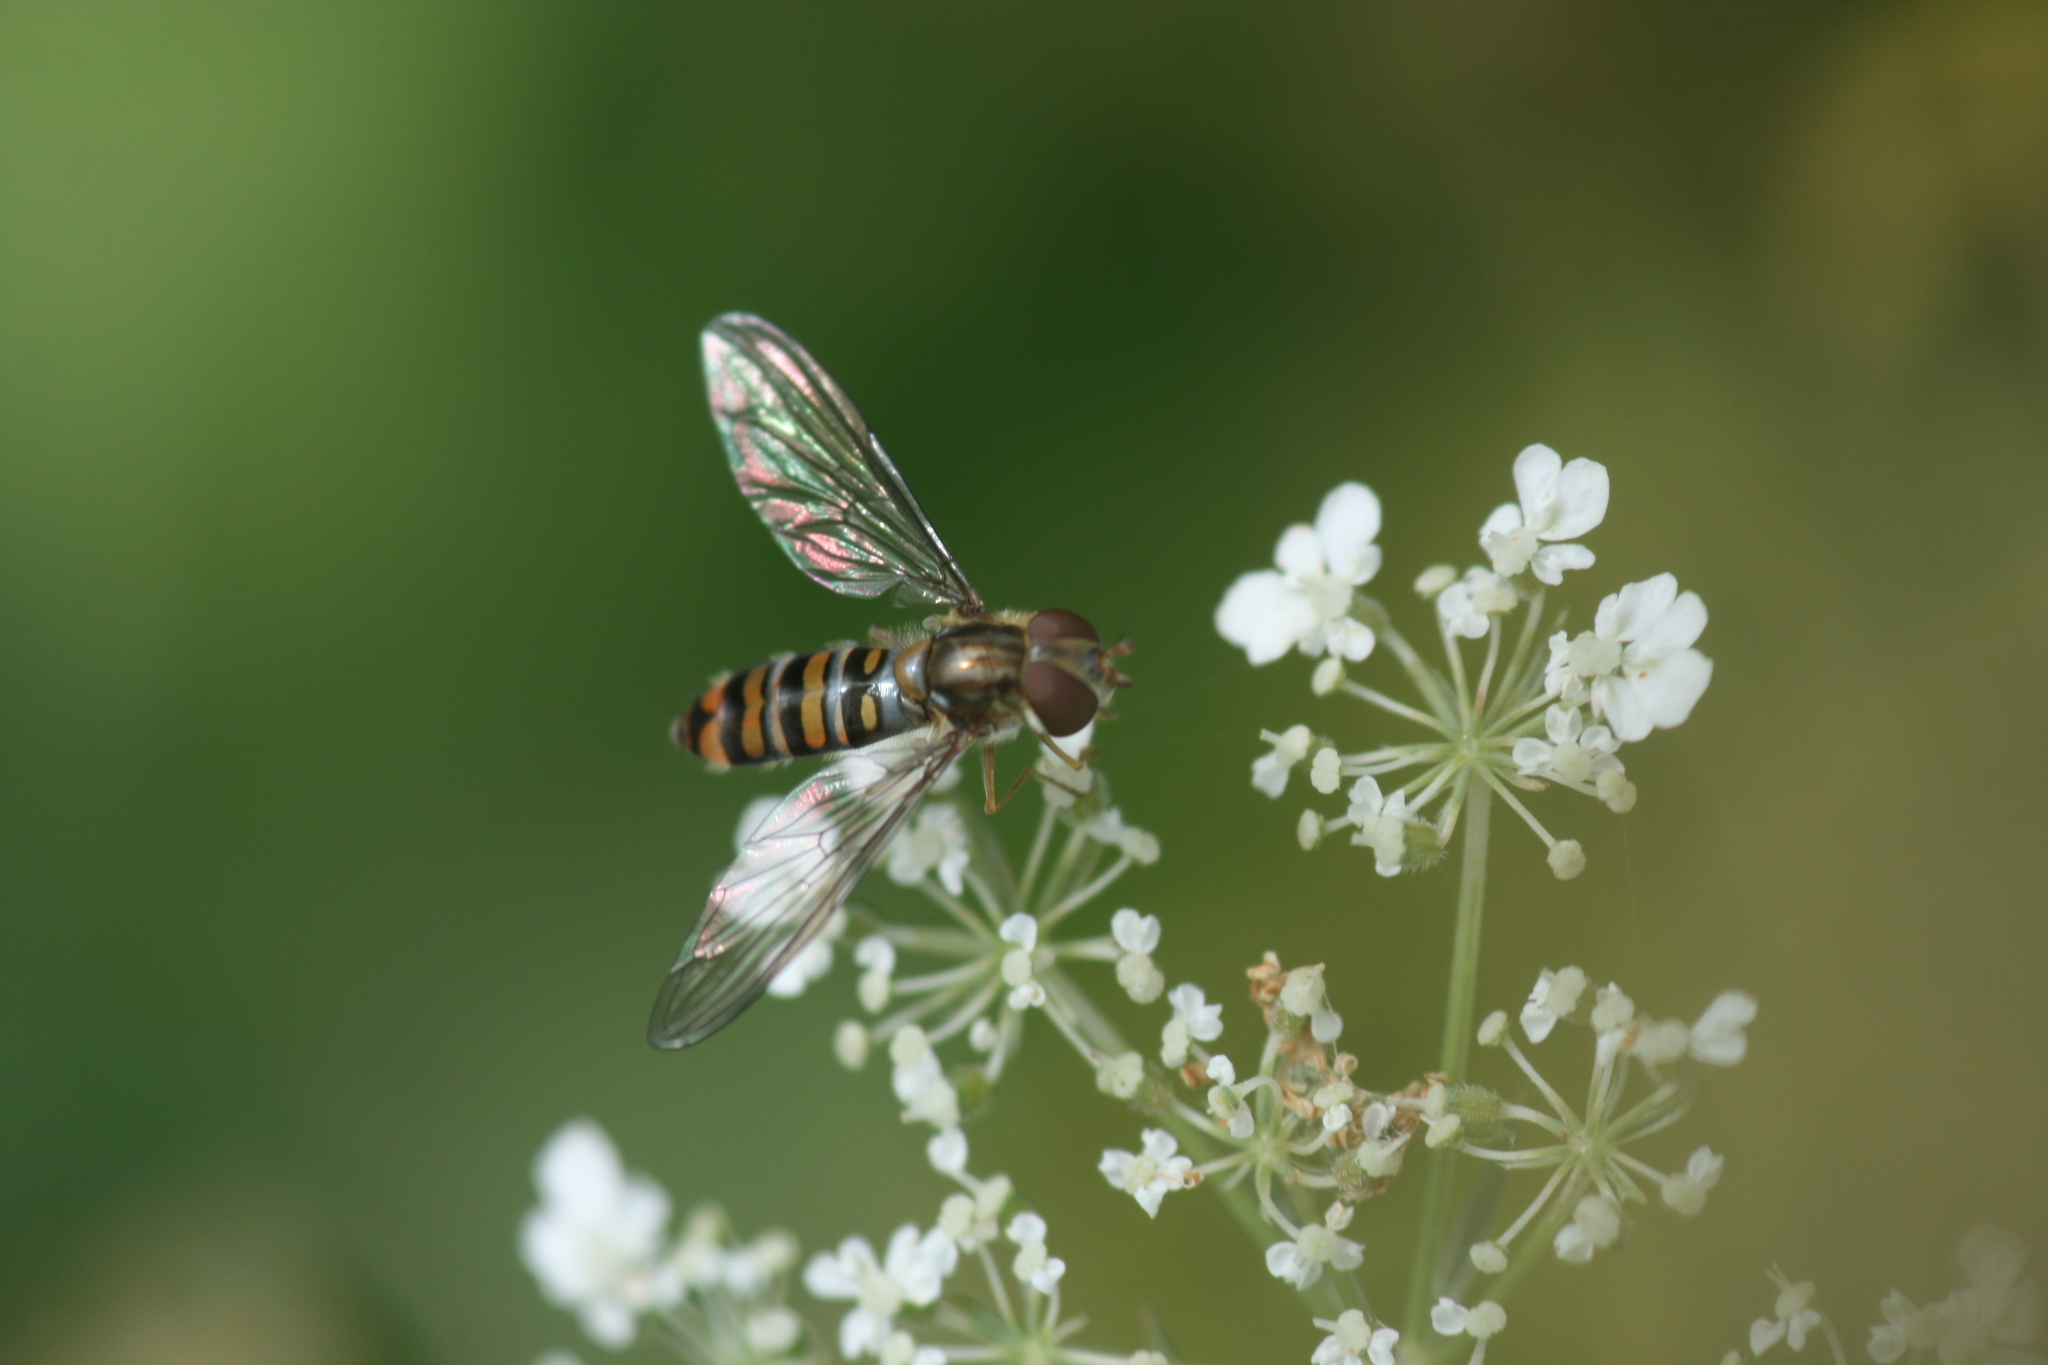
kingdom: Animalia
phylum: Arthropoda
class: Insecta
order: Diptera
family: Syrphidae
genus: Episyrphus
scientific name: Episyrphus balteatus
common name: Marmalade hoverfly
